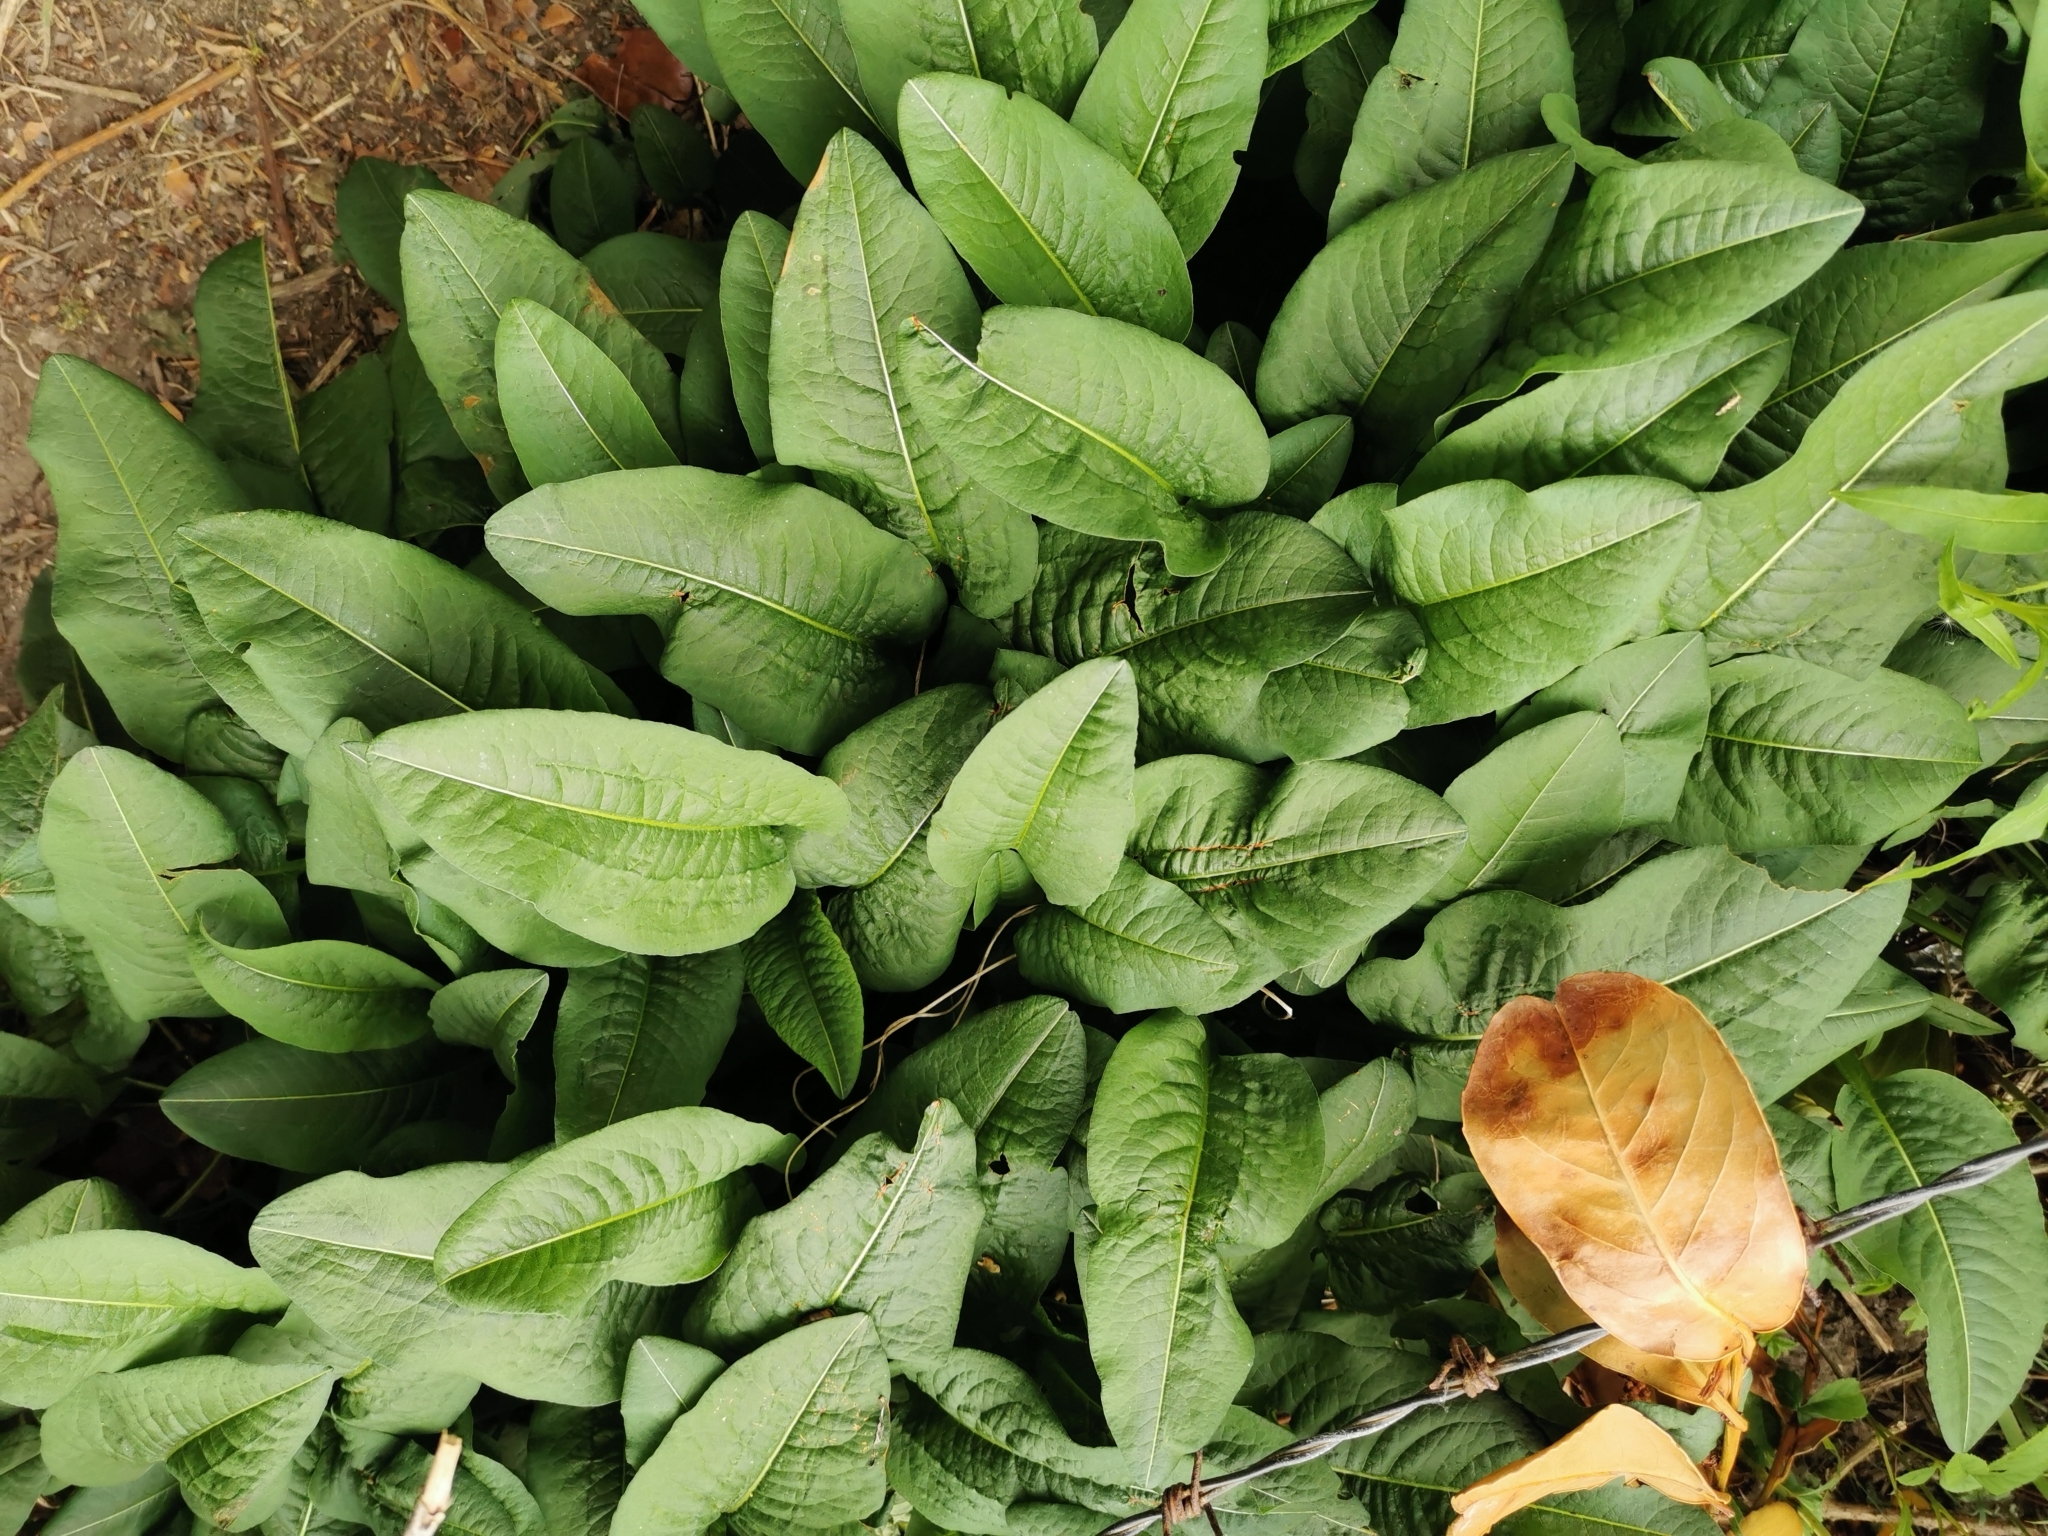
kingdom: Plantae
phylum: Tracheophyta
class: Magnoliopsida
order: Caryophyllales
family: Polygonaceae
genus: Bistorta
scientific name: Bistorta officinalis
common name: Common bistort
